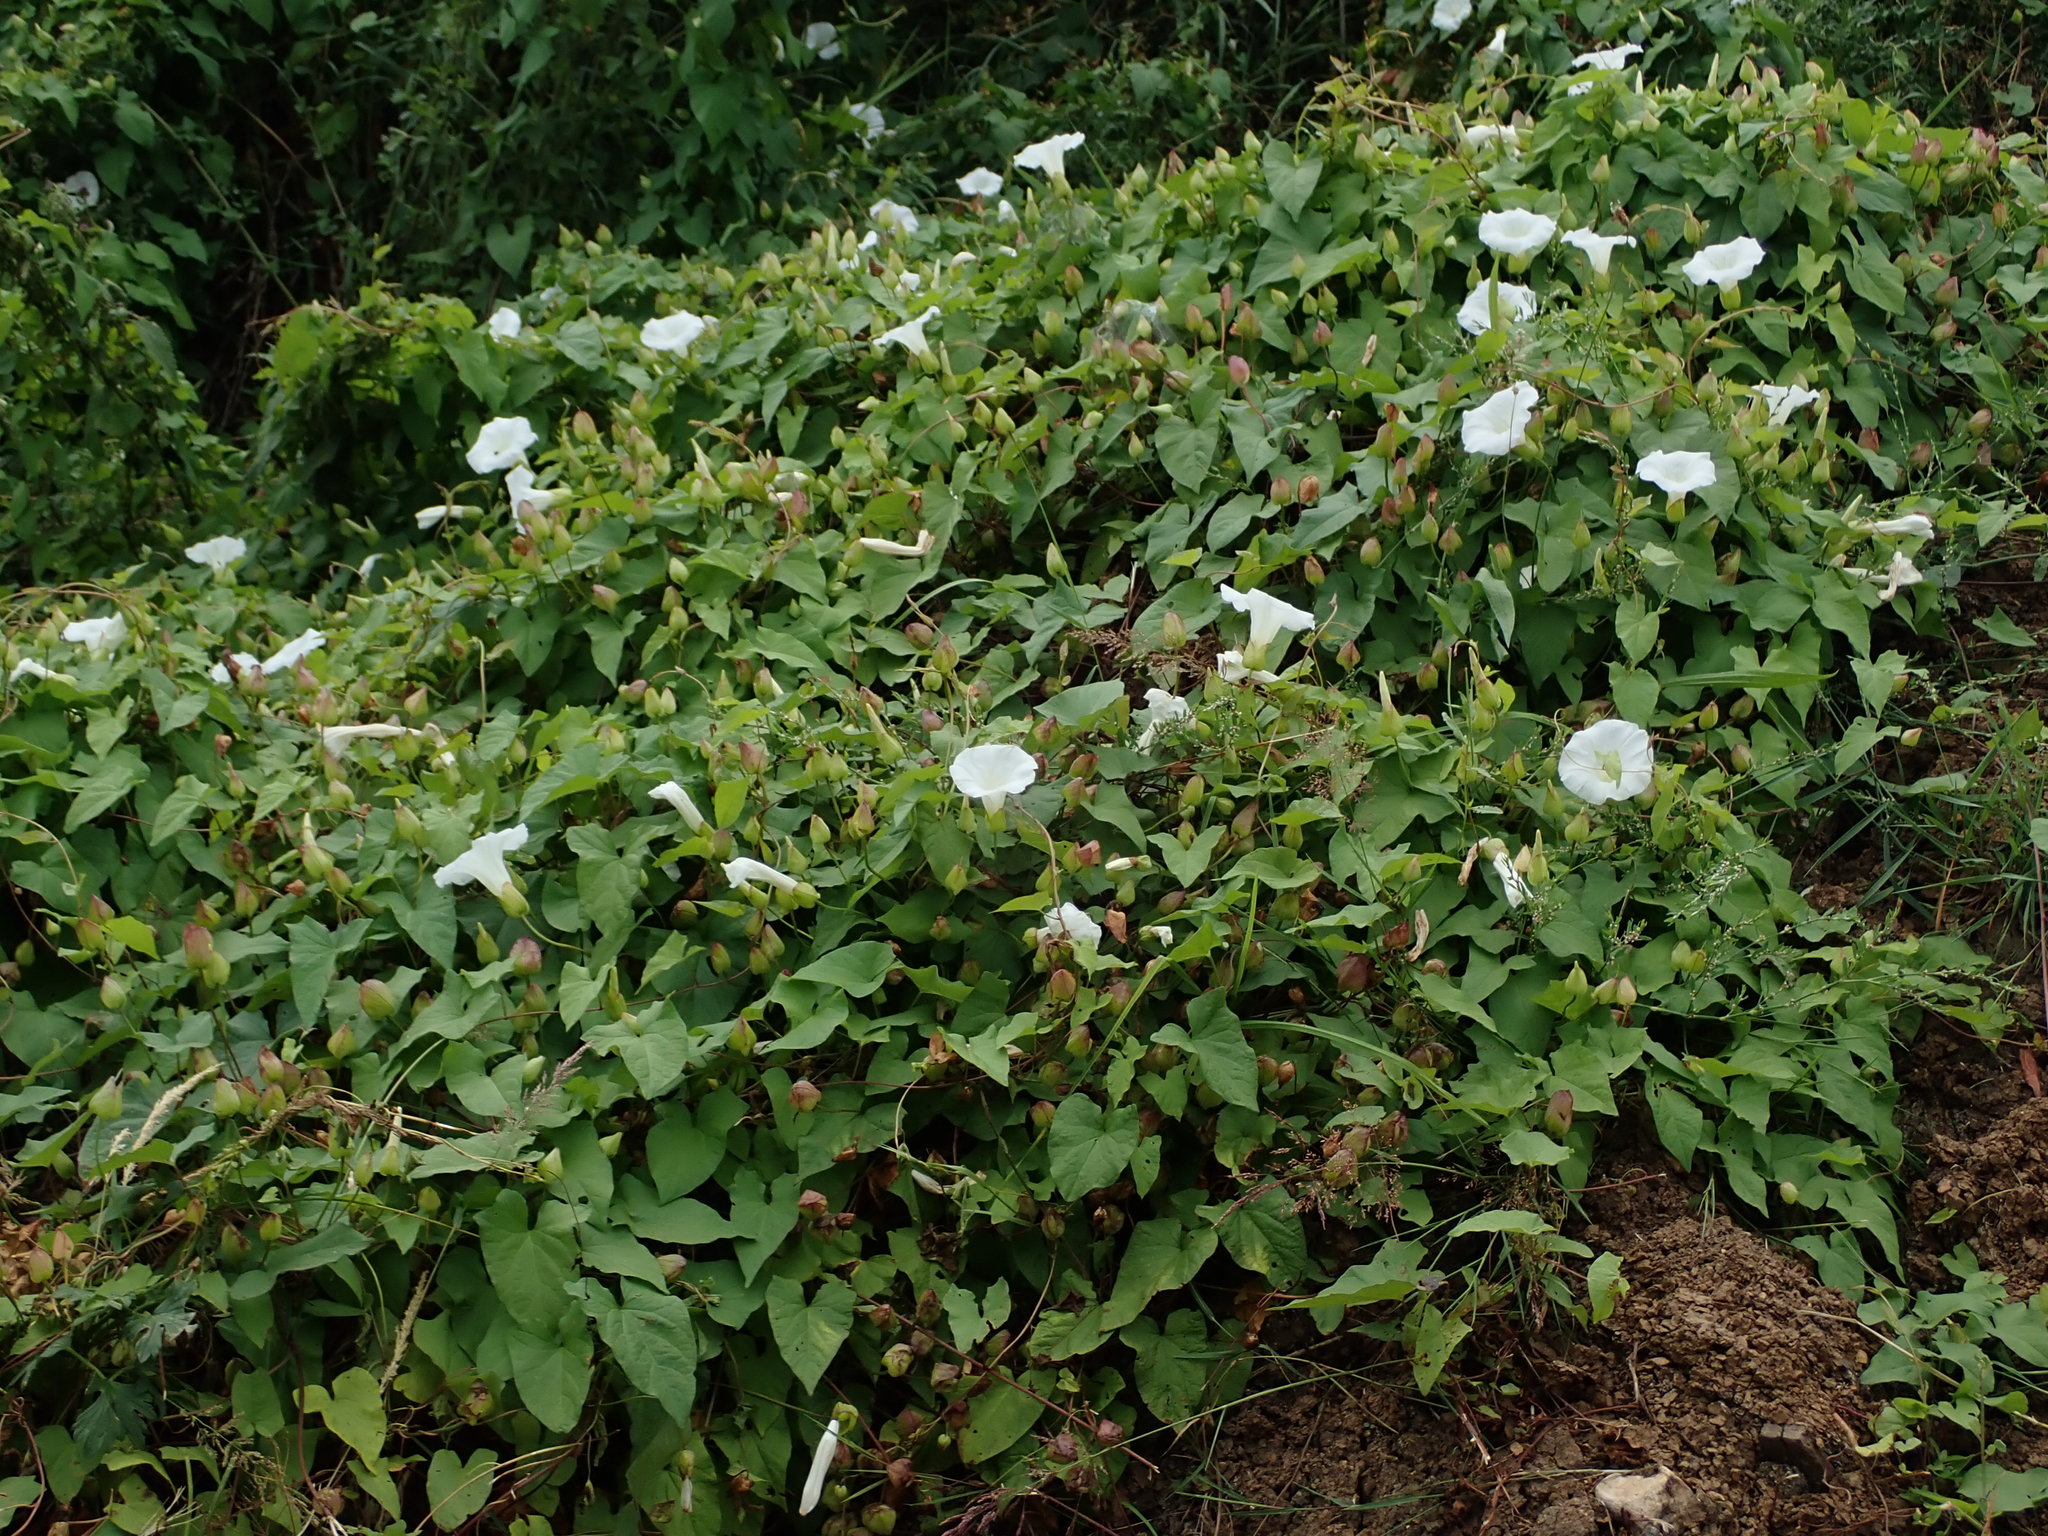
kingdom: Plantae
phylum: Tracheophyta
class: Magnoliopsida
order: Solanales
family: Convolvulaceae
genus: Calystegia
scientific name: Calystegia silvatica
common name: Large bindweed
